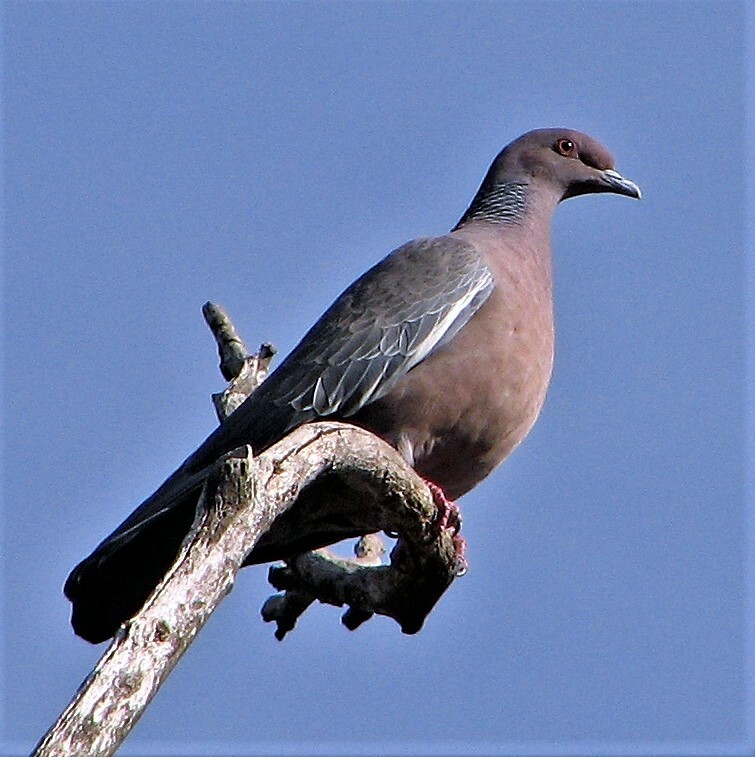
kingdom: Animalia
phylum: Chordata
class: Aves
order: Columbiformes
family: Columbidae
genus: Patagioenas
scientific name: Patagioenas picazuro
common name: Picazuro pigeon
